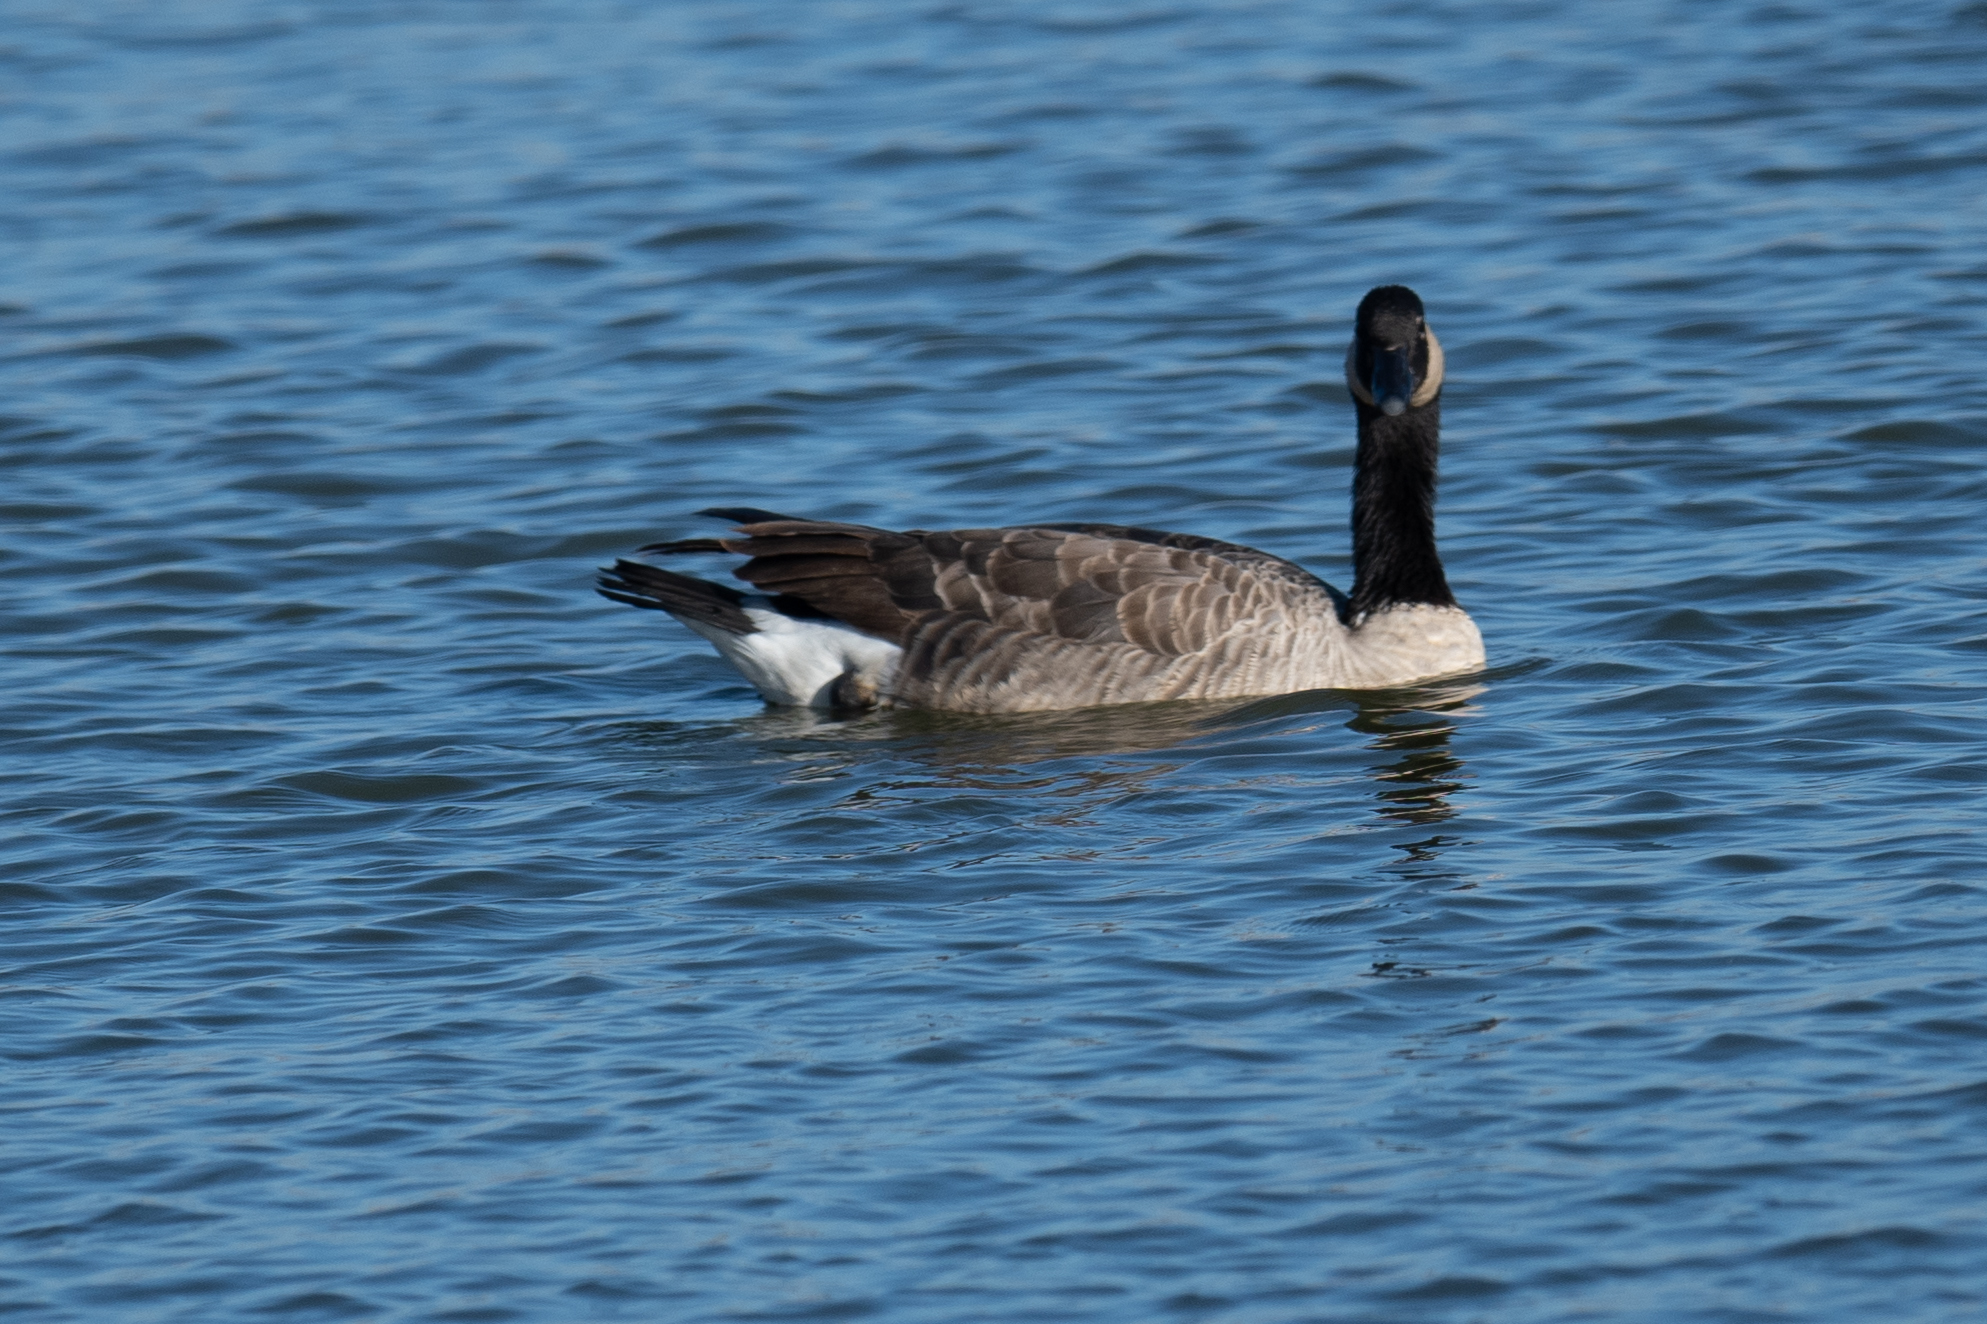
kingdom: Animalia
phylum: Chordata
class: Aves
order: Anseriformes
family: Anatidae
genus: Branta
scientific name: Branta canadensis
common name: Canada goose
